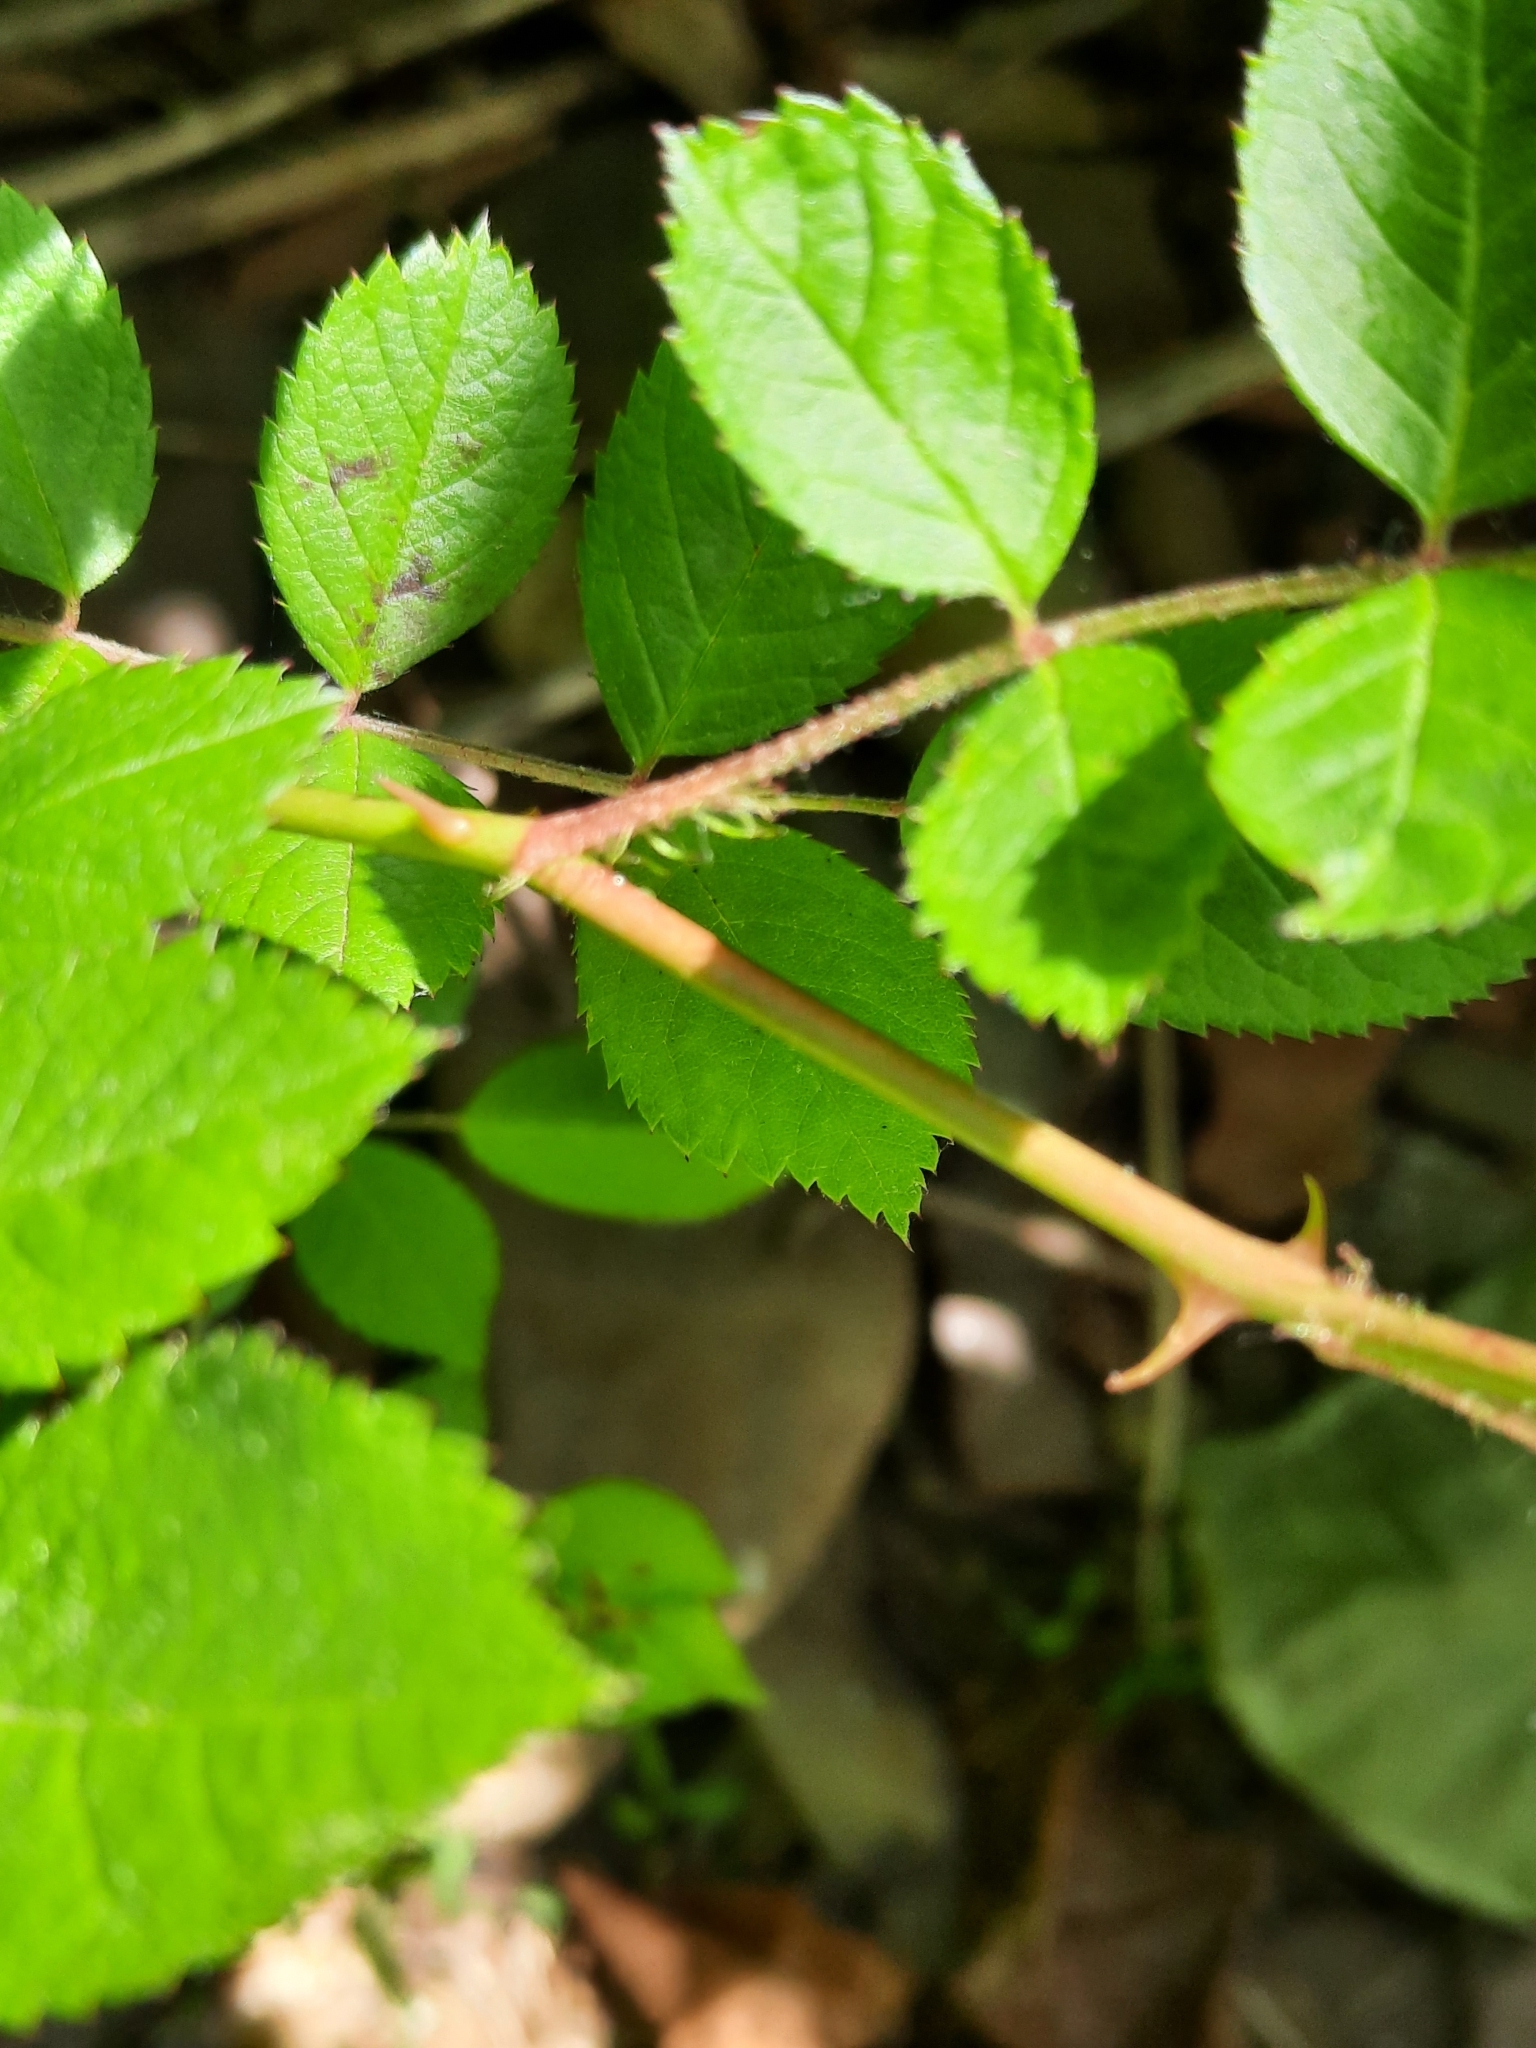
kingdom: Plantae
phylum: Tracheophyta
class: Magnoliopsida
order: Rosales
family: Rosaceae
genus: Rosa
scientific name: Rosa multiflora
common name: Multiflora rose
